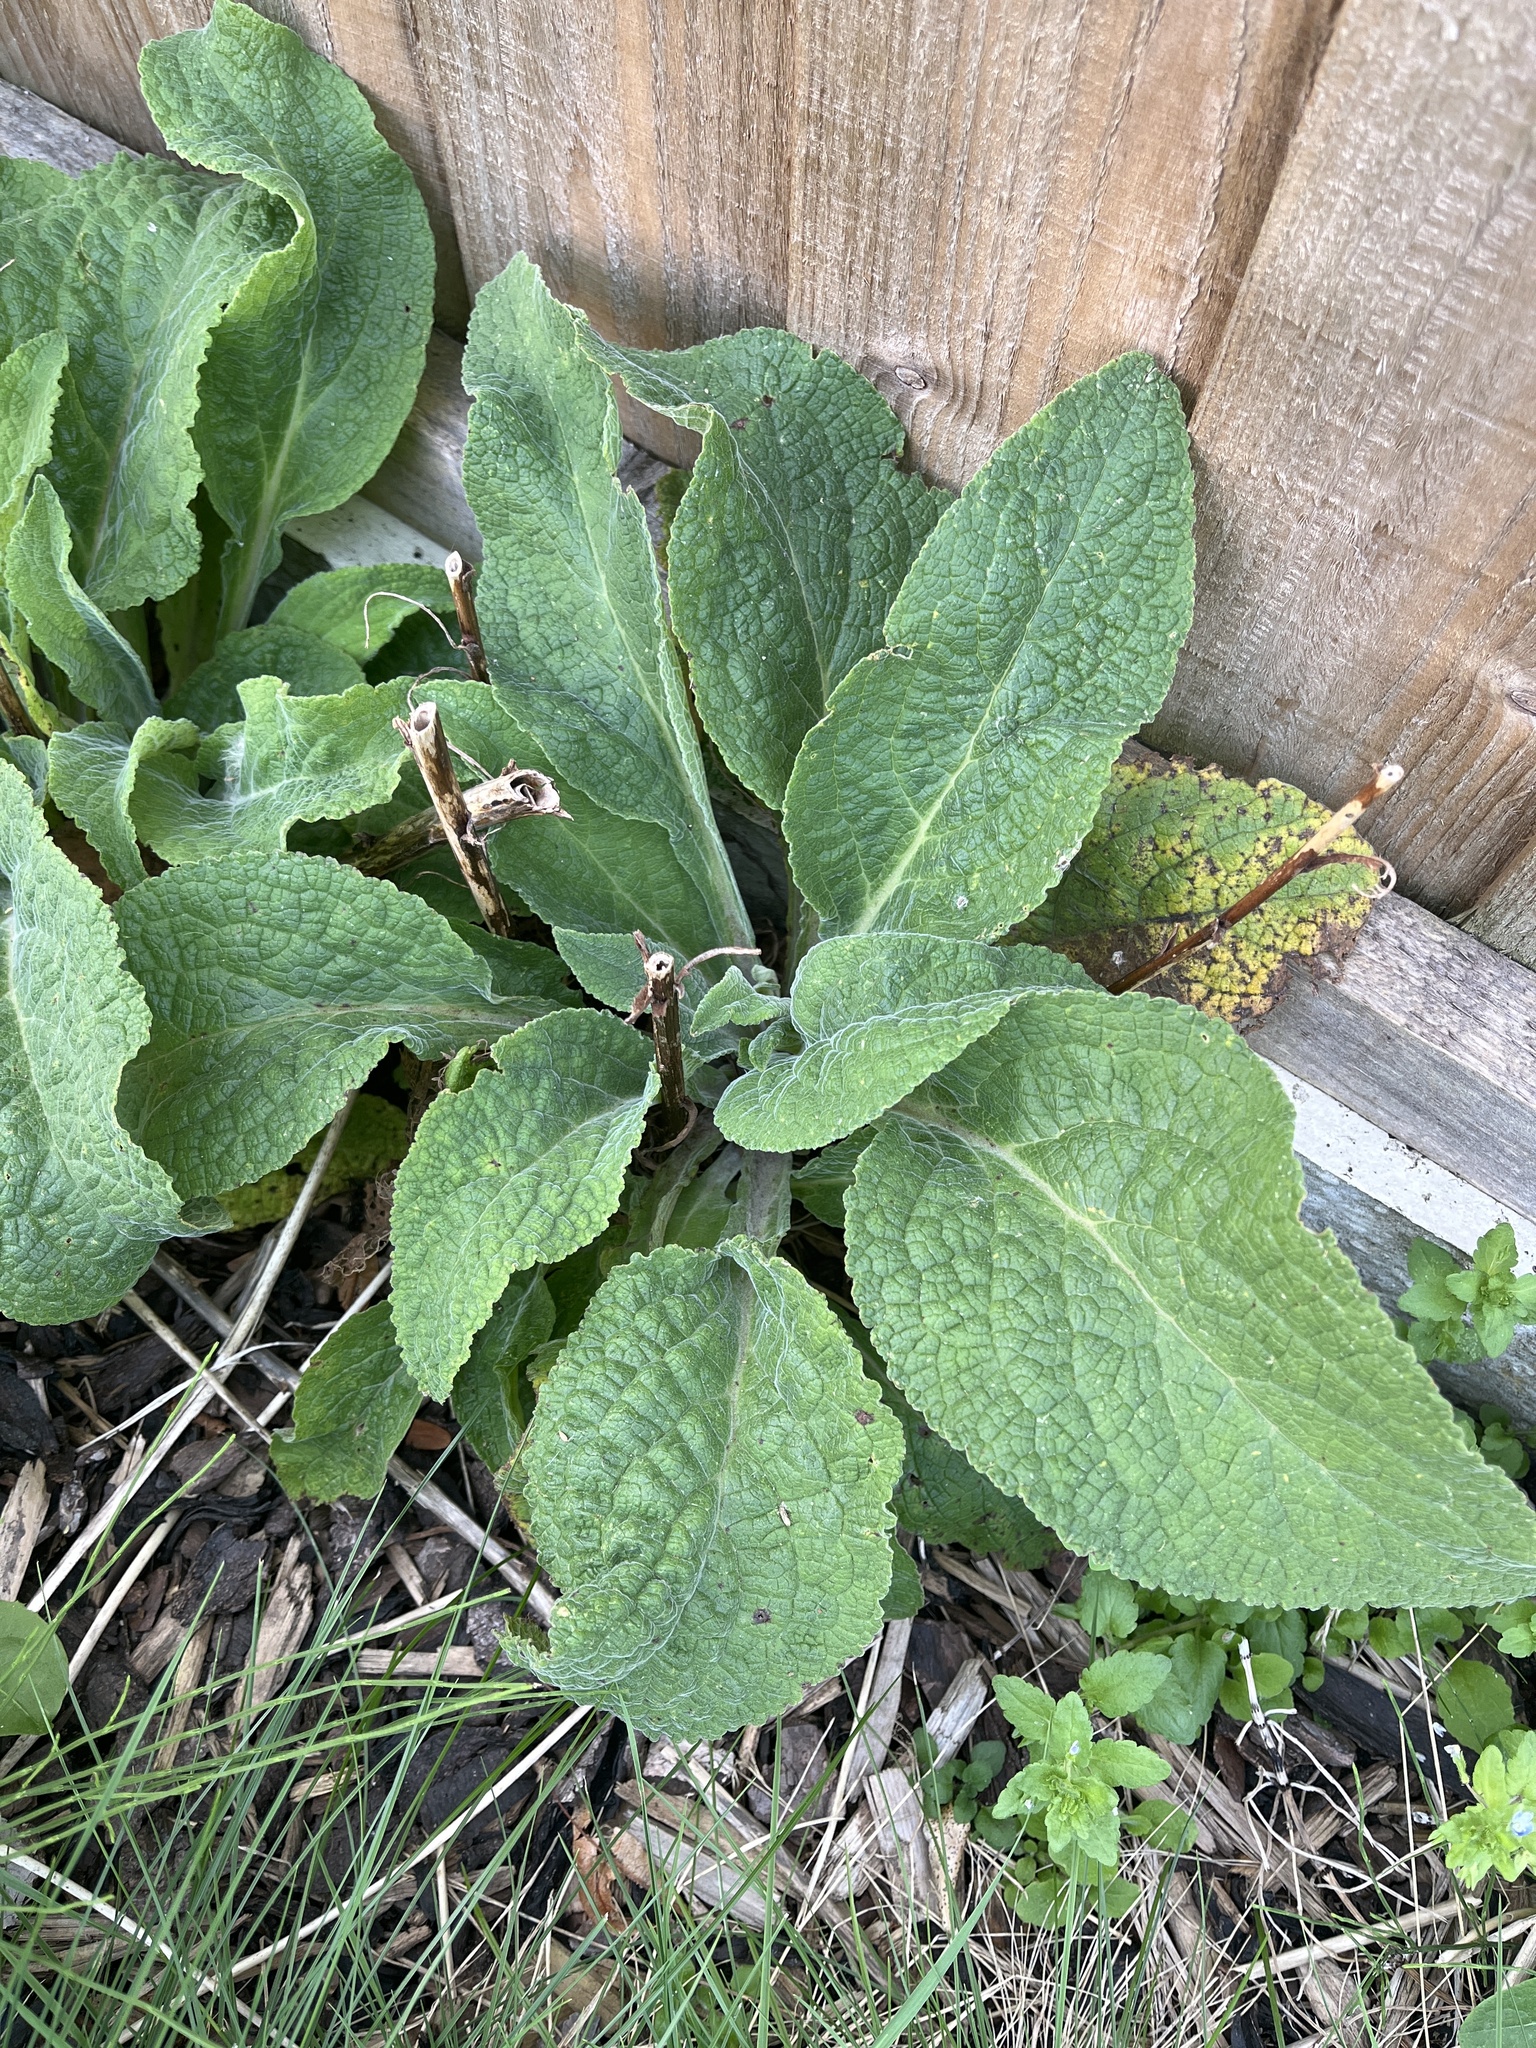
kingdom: Plantae
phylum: Tracheophyta
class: Magnoliopsida
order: Lamiales
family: Plantaginaceae
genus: Digitalis
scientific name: Digitalis purpurea
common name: Foxglove
